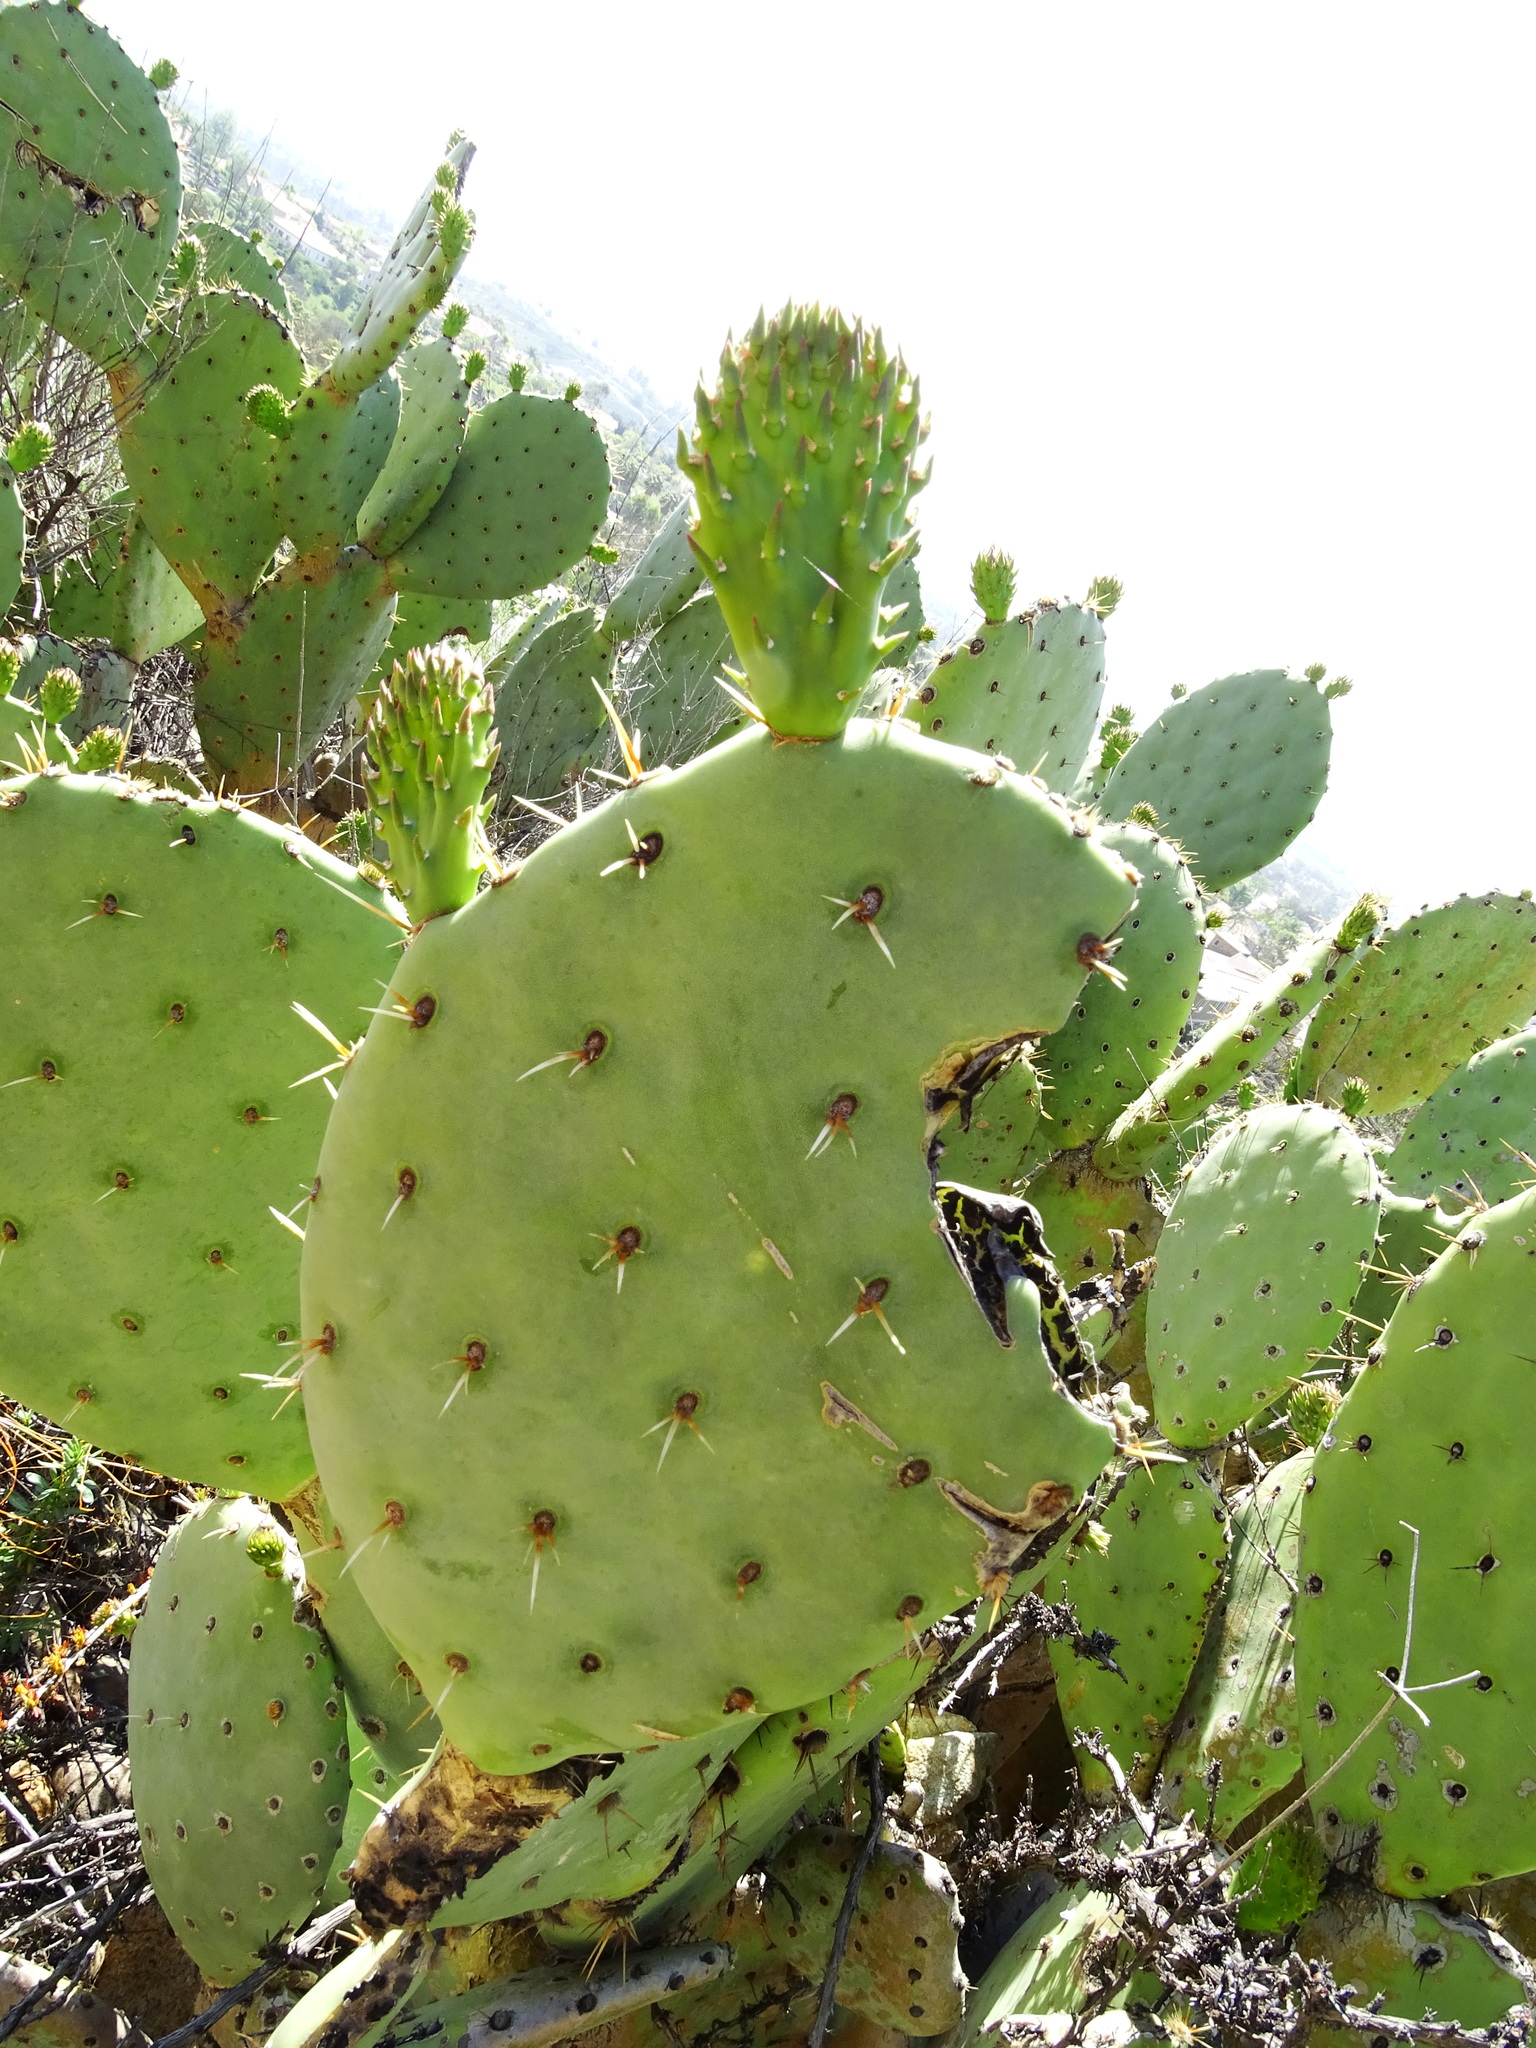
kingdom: Plantae
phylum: Tracheophyta
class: Magnoliopsida
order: Caryophyllales
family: Cactaceae
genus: Opuntia
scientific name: Opuntia
